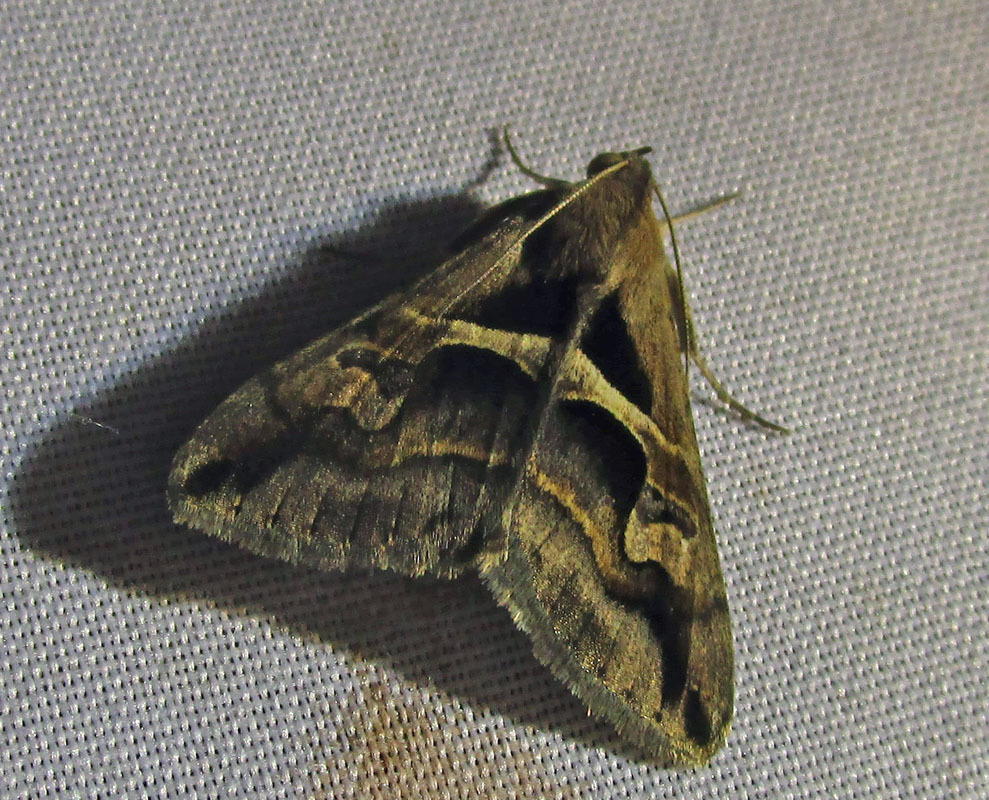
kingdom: Animalia
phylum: Arthropoda
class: Insecta
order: Lepidoptera
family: Erebidae
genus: Melipotis
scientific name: Melipotis cellaris
